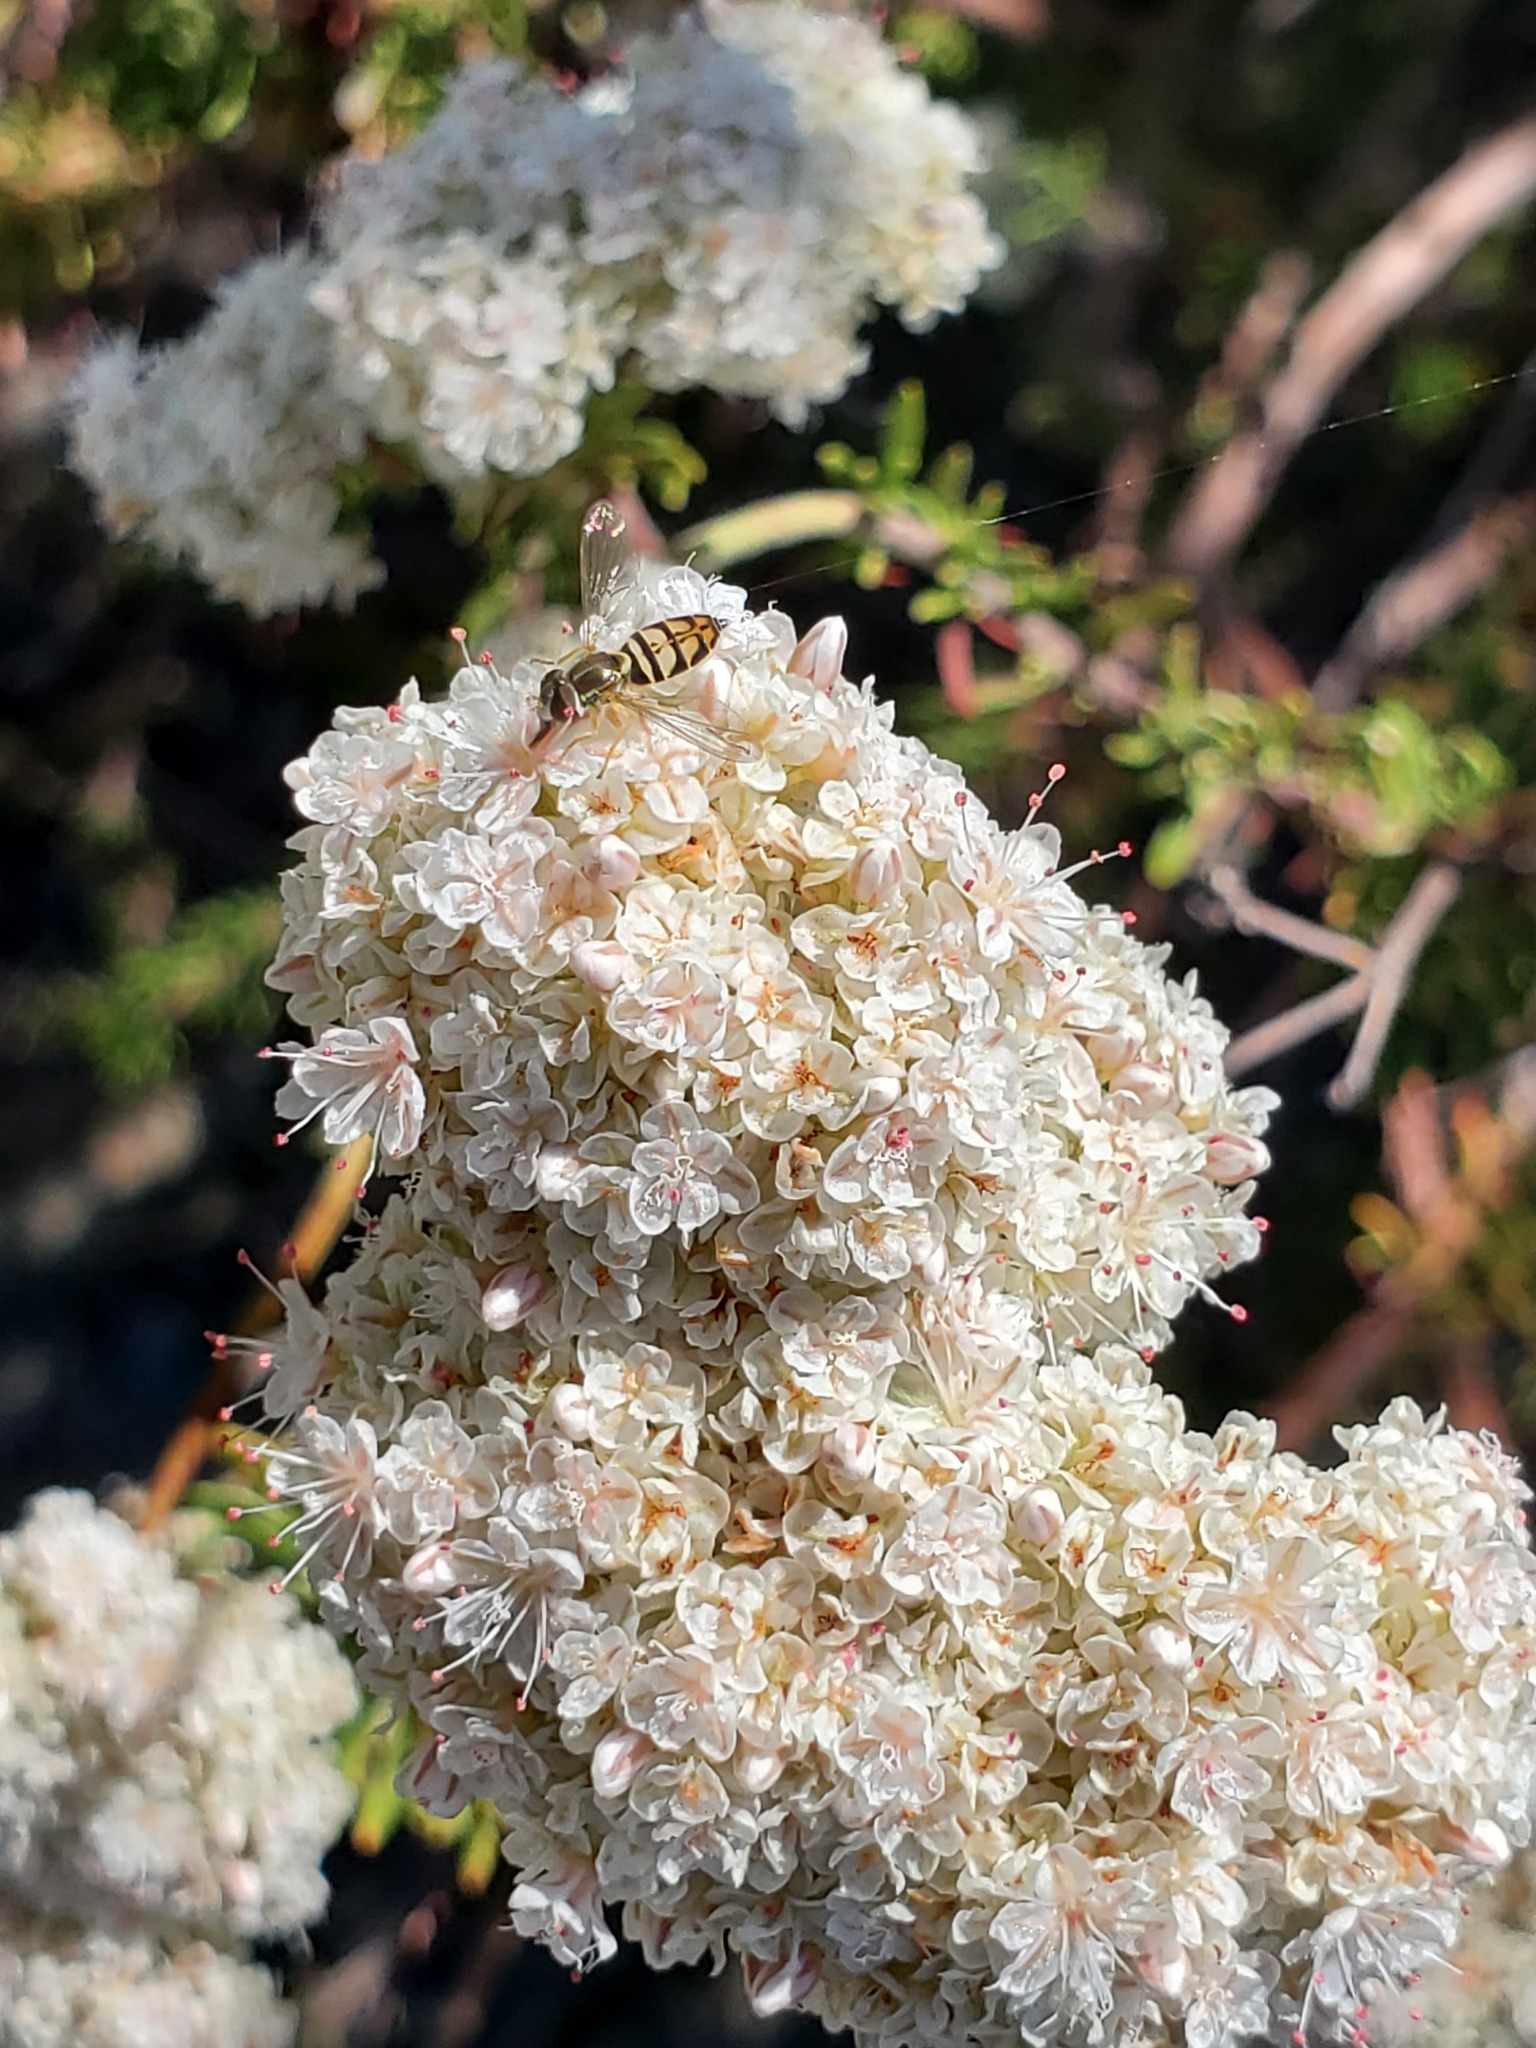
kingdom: Plantae
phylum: Tracheophyta
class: Magnoliopsida
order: Caryophyllales
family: Polygonaceae
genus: Eriogonum
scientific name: Eriogonum fasciculatum
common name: California wild buckwheat
